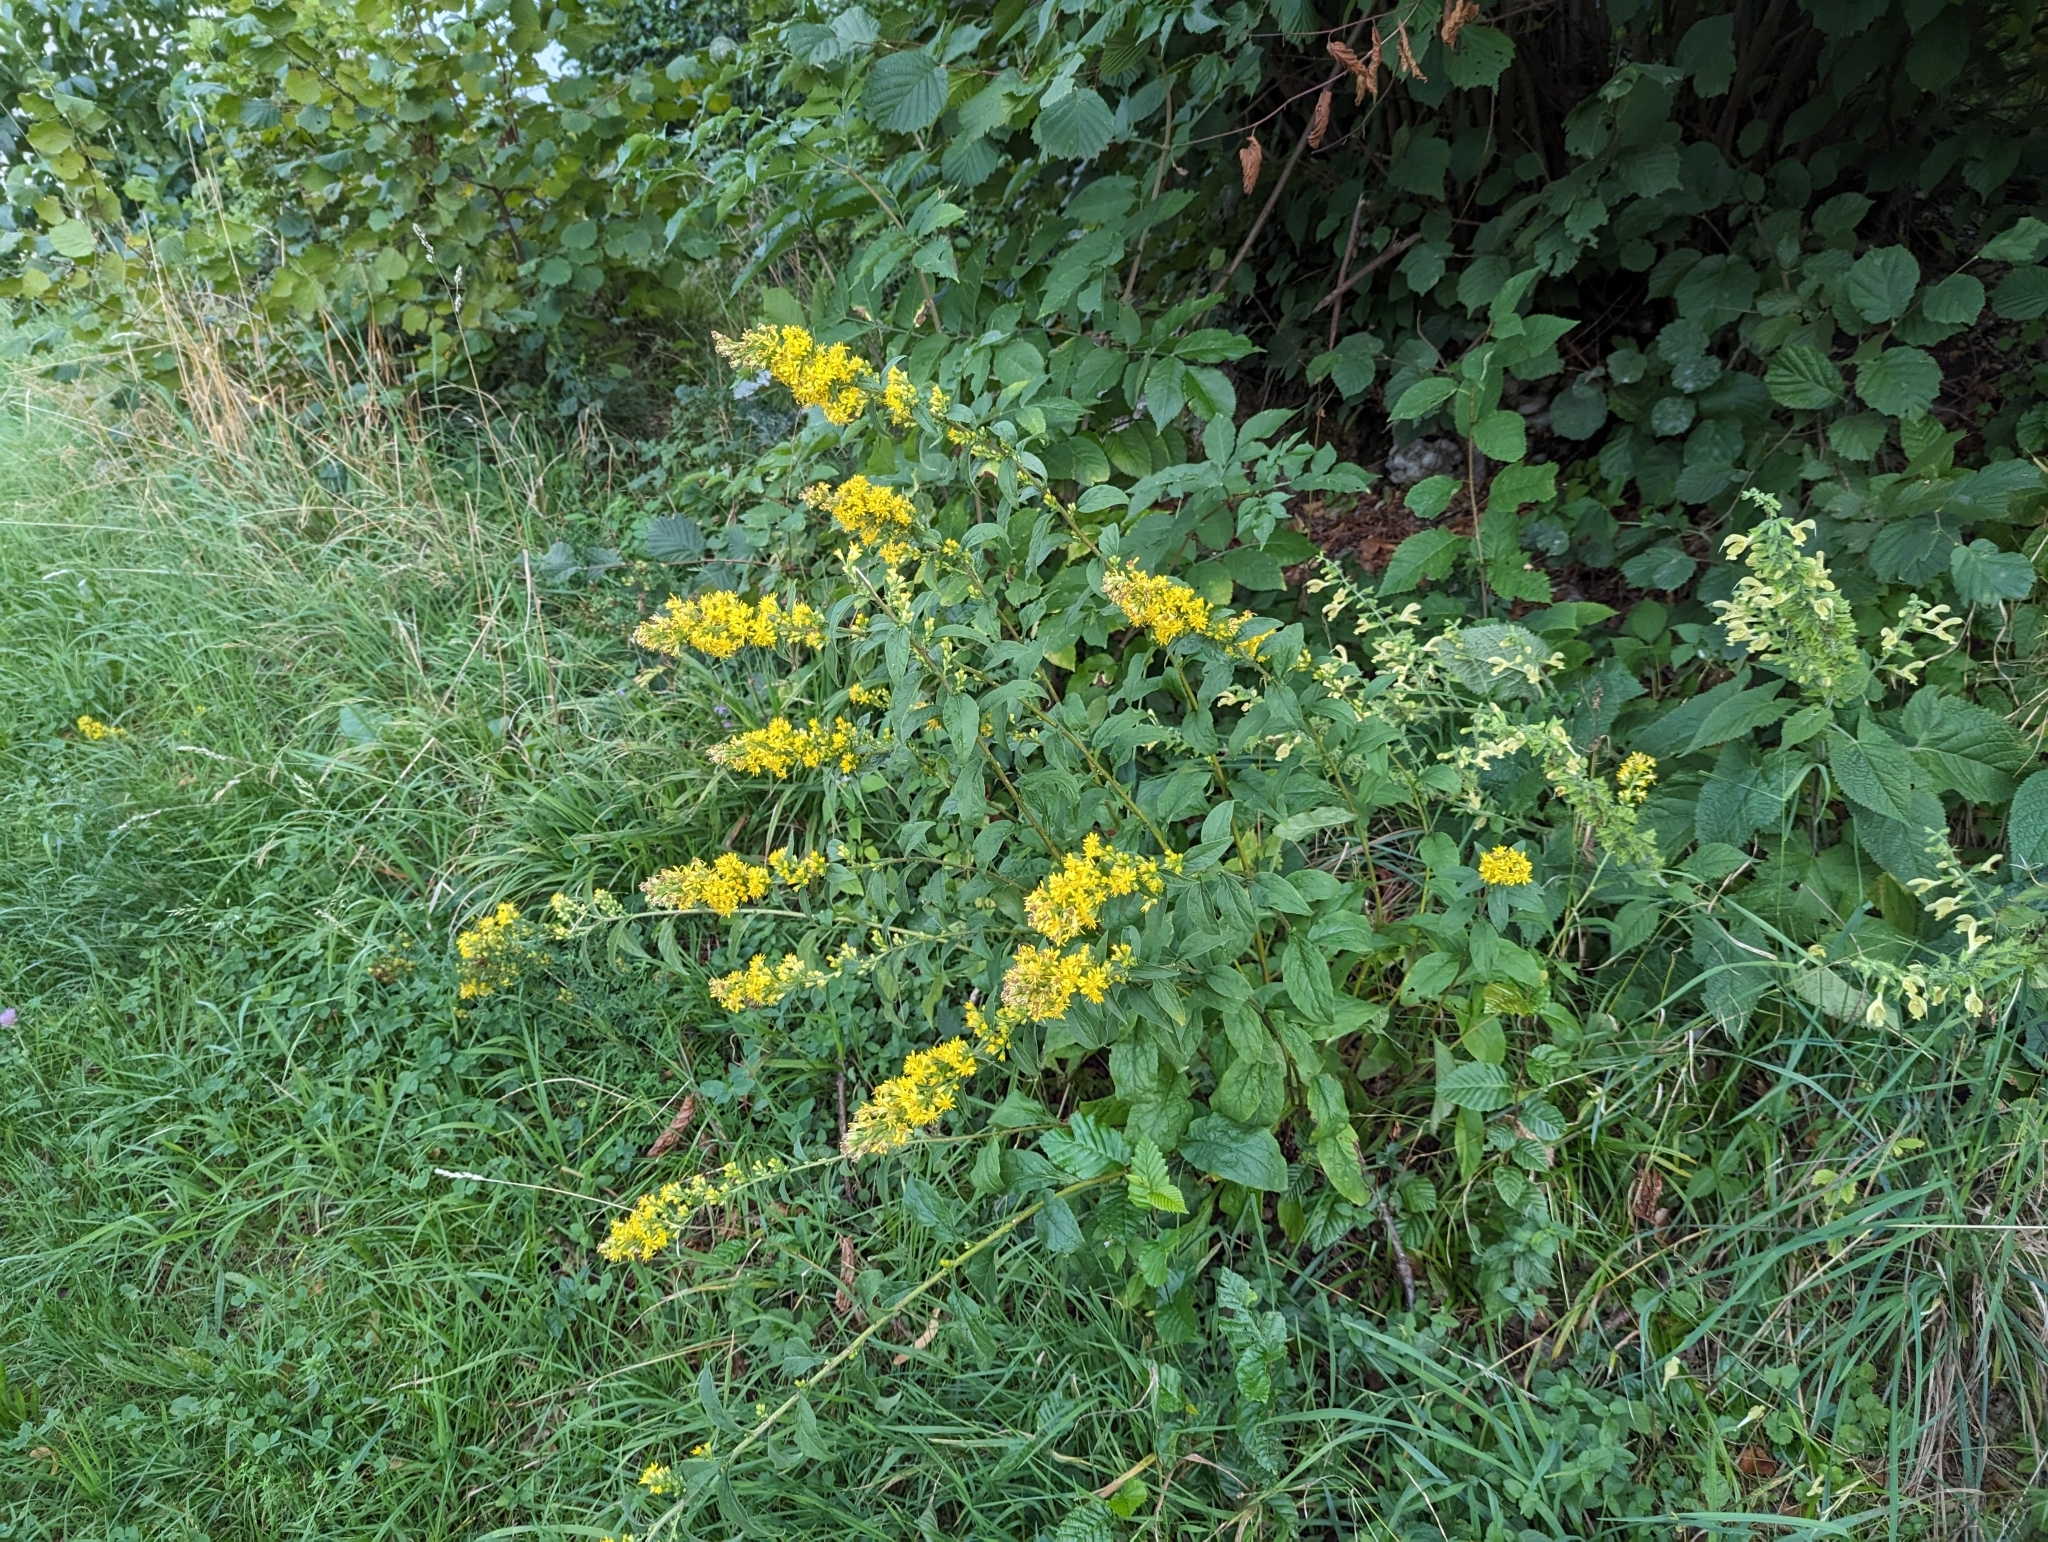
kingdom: Plantae
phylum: Tracheophyta
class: Magnoliopsida
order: Asterales
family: Asteraceae
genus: Solidago
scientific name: Solidago virgaurea
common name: Goldenrod
